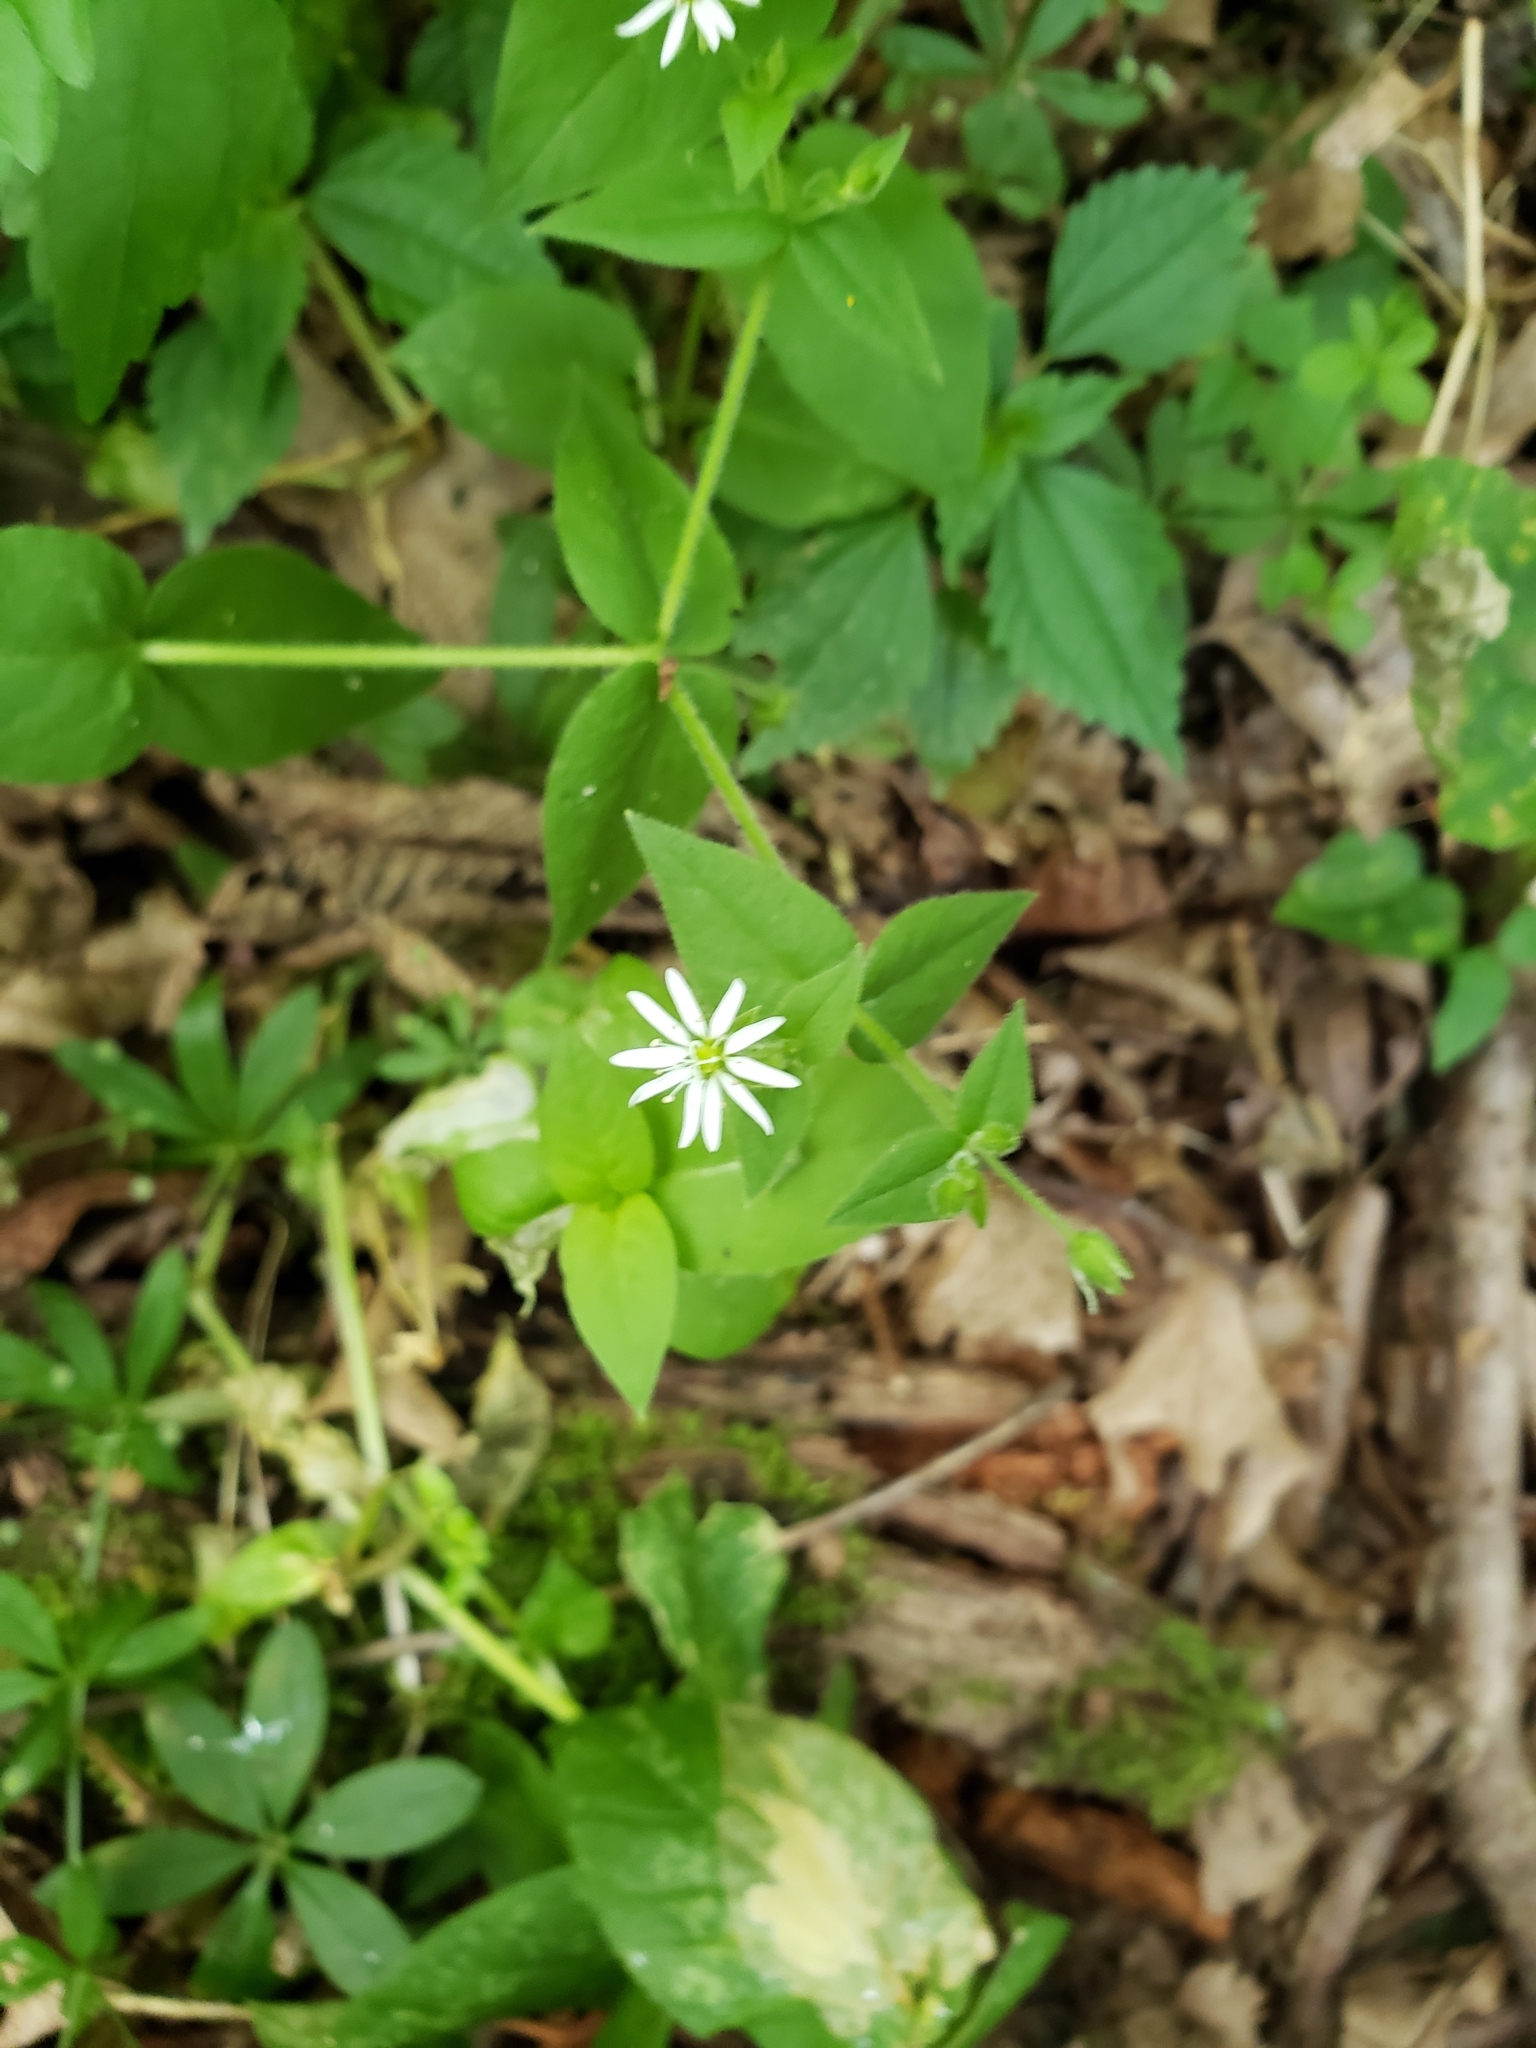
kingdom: Plantae
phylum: Tracheophyta
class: Magnoliopsida
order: Caryophyllales
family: Caryophyllaceae
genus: Stellaria
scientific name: Stellaria aquatica
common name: Water chickweed
